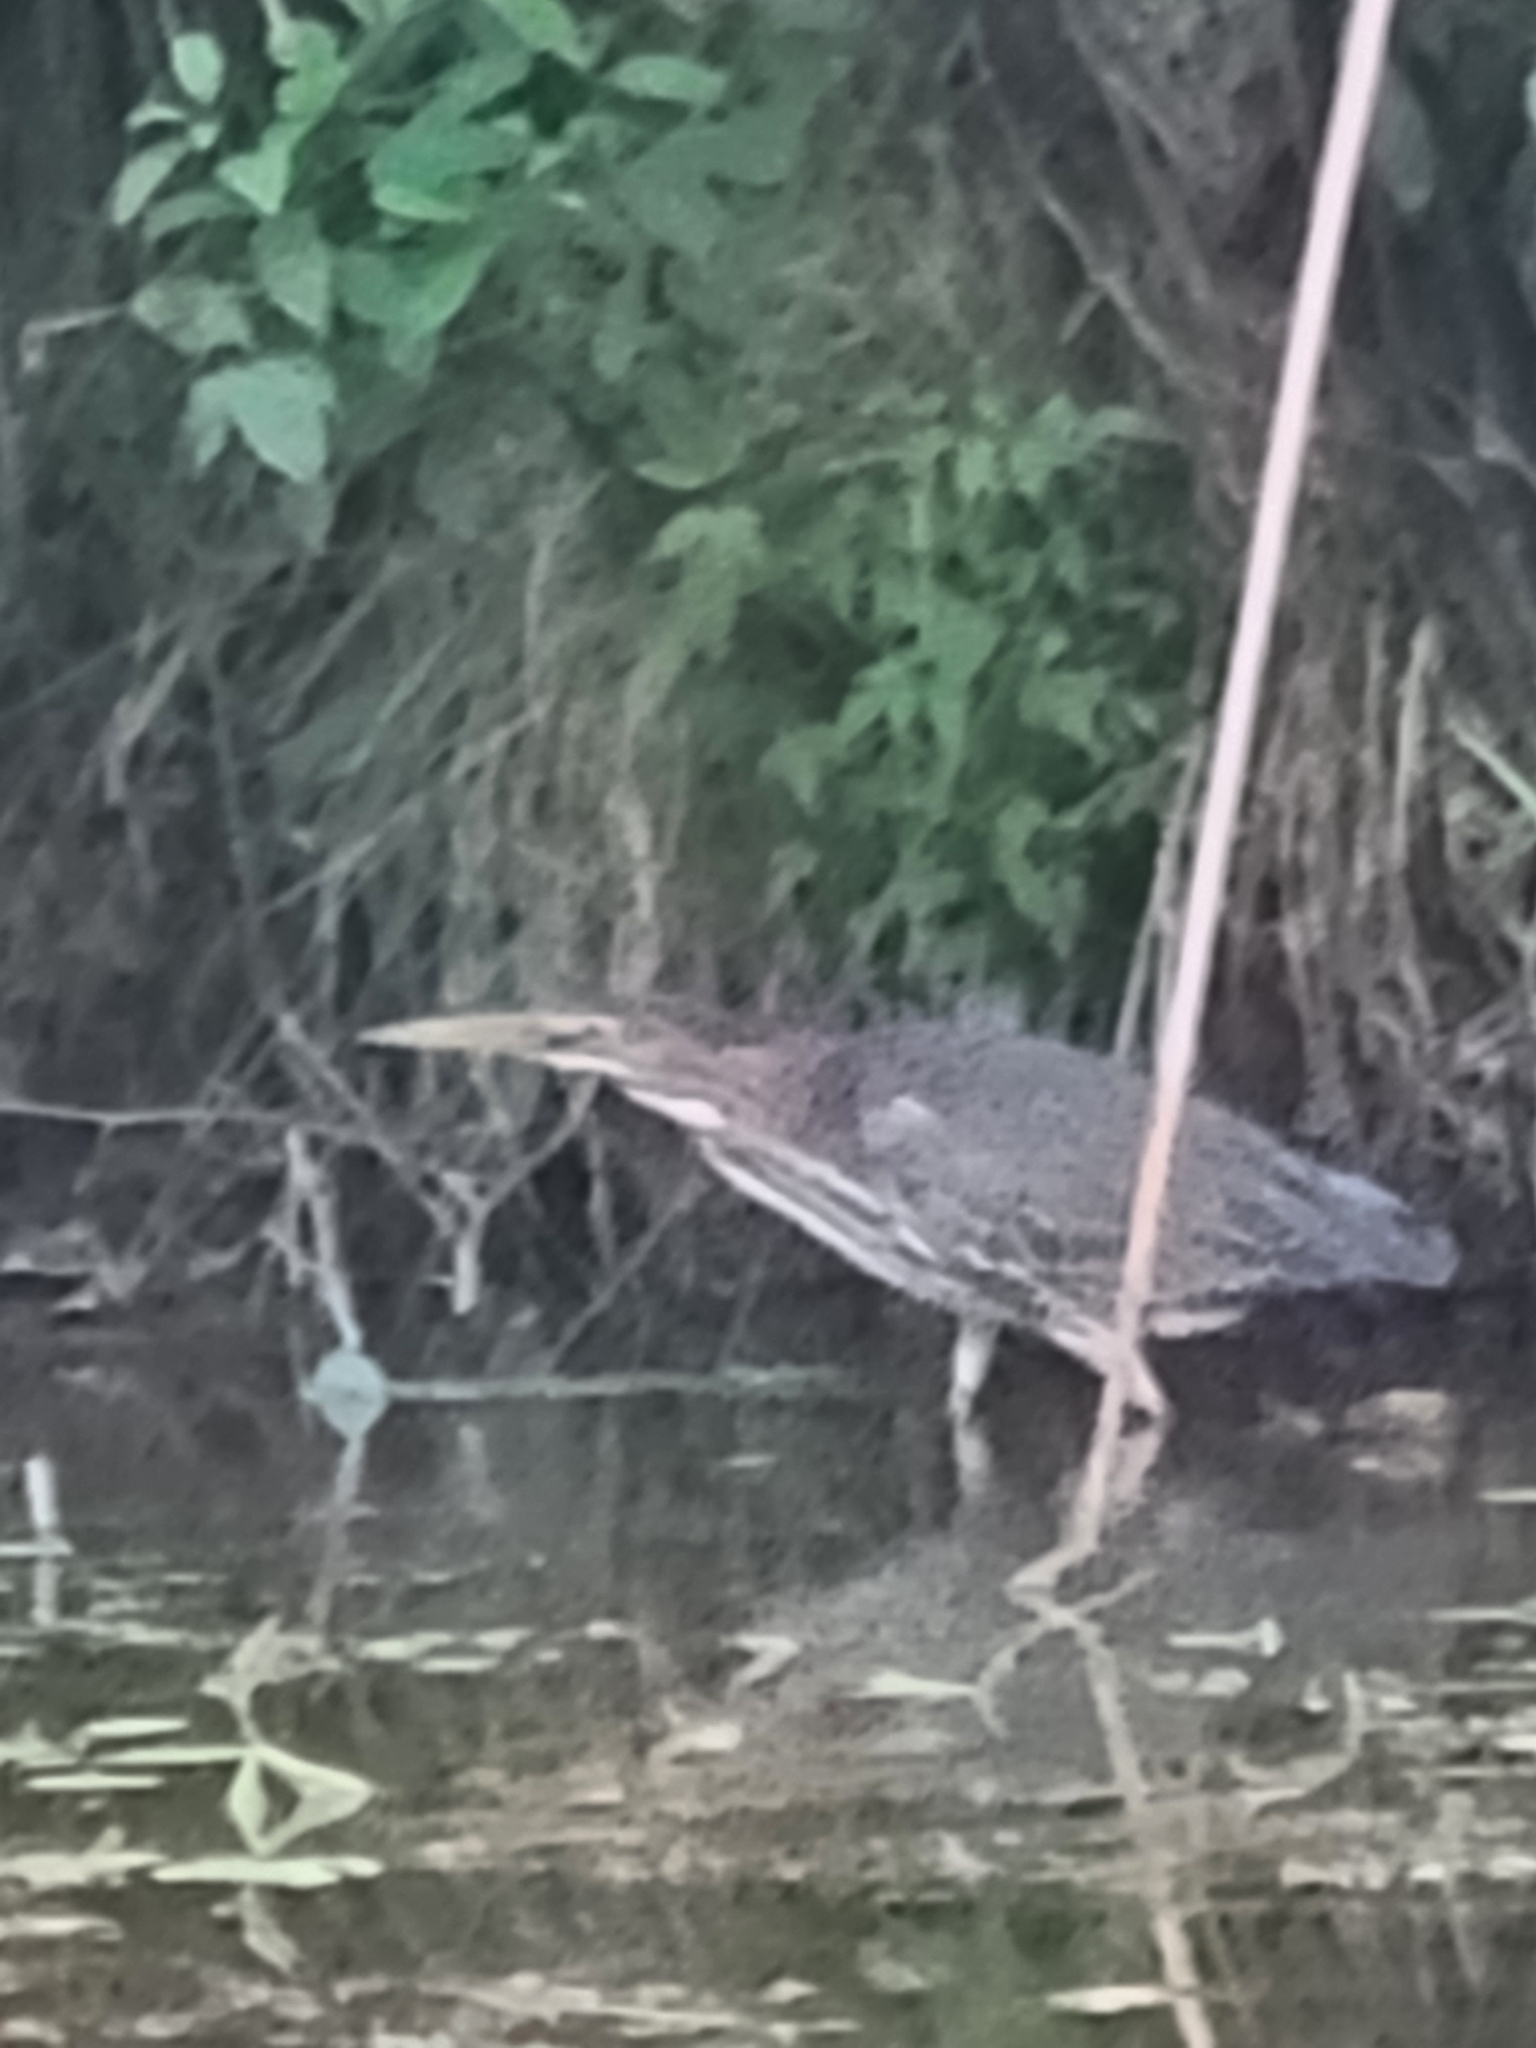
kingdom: Animalia
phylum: Chordata
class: Aves
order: Pelecaniformes
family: Ardeidae
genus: Butorides
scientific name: Butorides virescens
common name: Green heron
